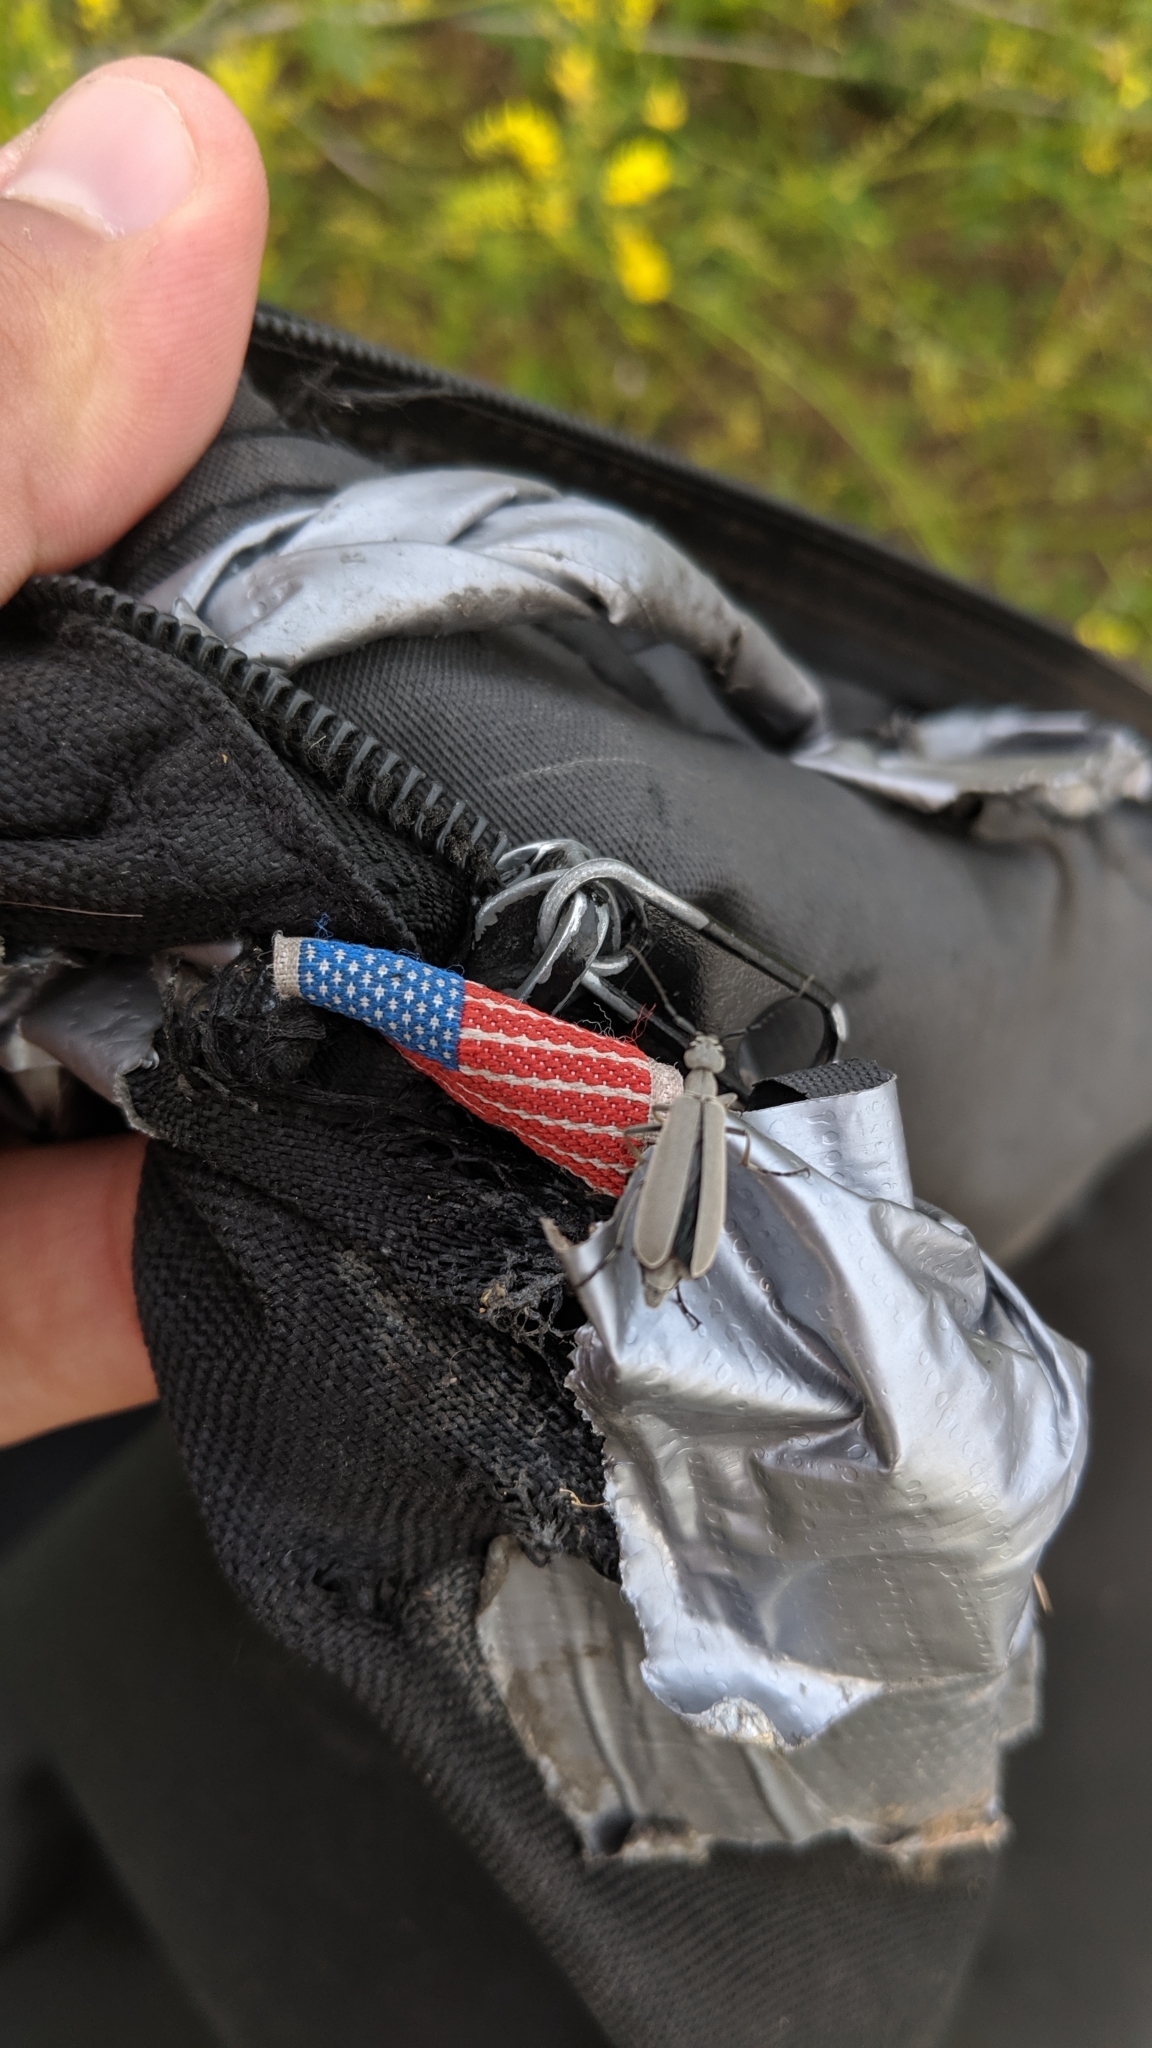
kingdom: Animalia
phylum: Arthropoda
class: Insecta
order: Coleoptera
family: Meloidae
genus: Epicauta
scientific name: Epicauta fabricii
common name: Ashgray blister beetle
